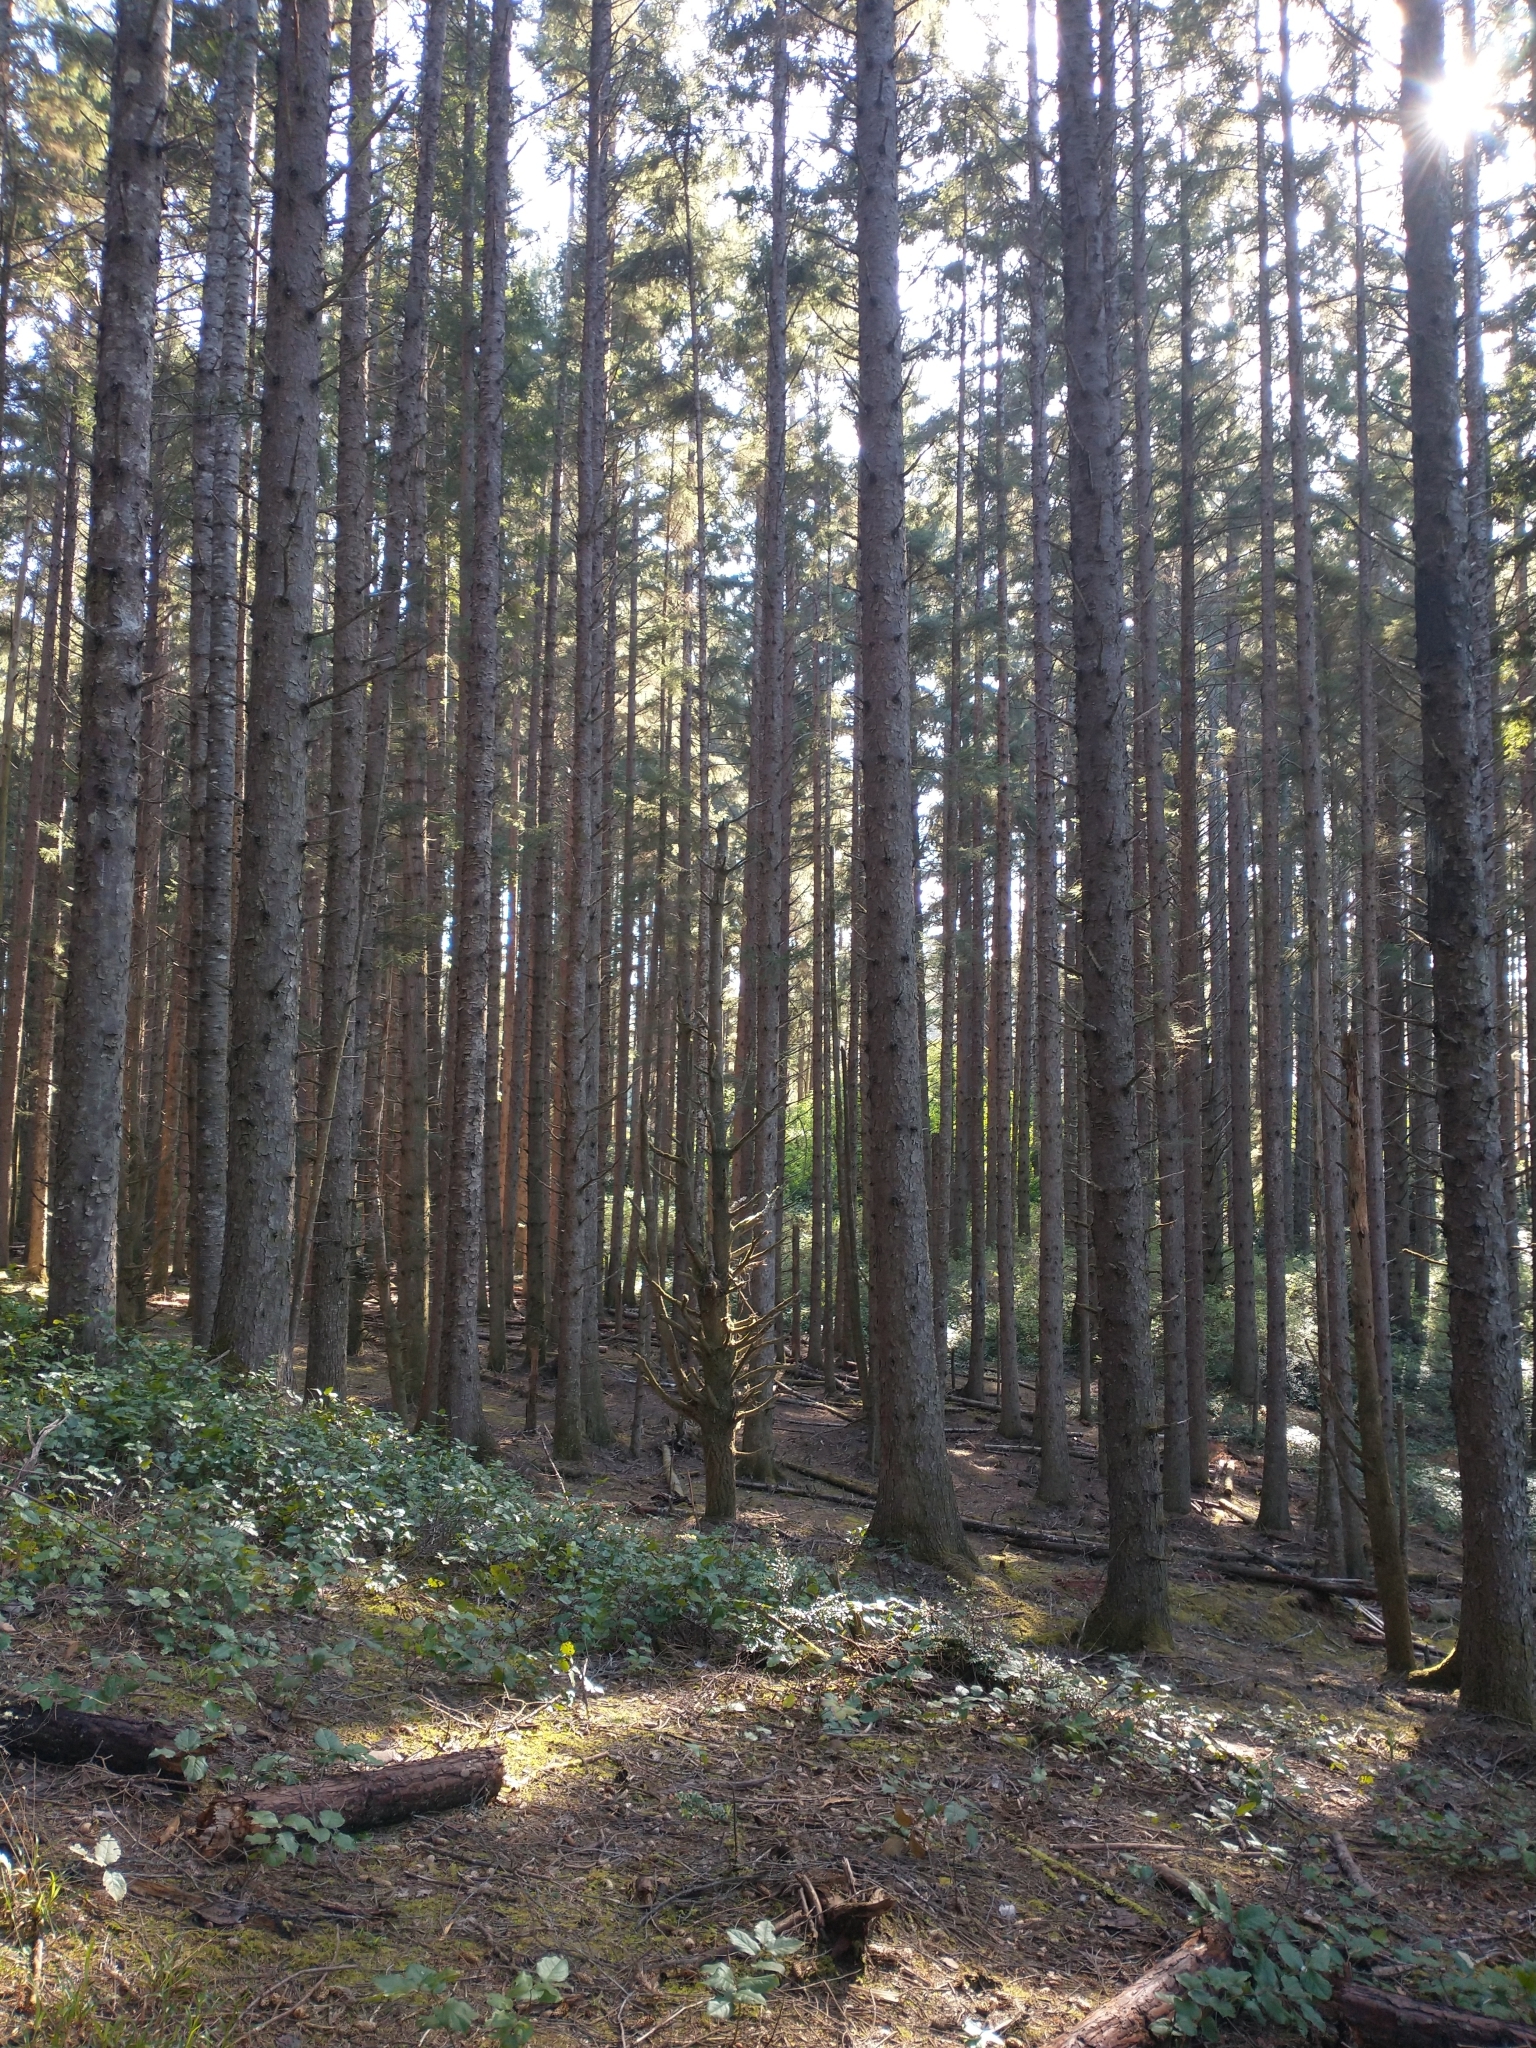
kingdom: Plantae
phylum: Tracheophyta
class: Magnoliopsida
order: Ericales
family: Ericaceae
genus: Gaultheria
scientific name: Gaultheria shallon
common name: Shallon
